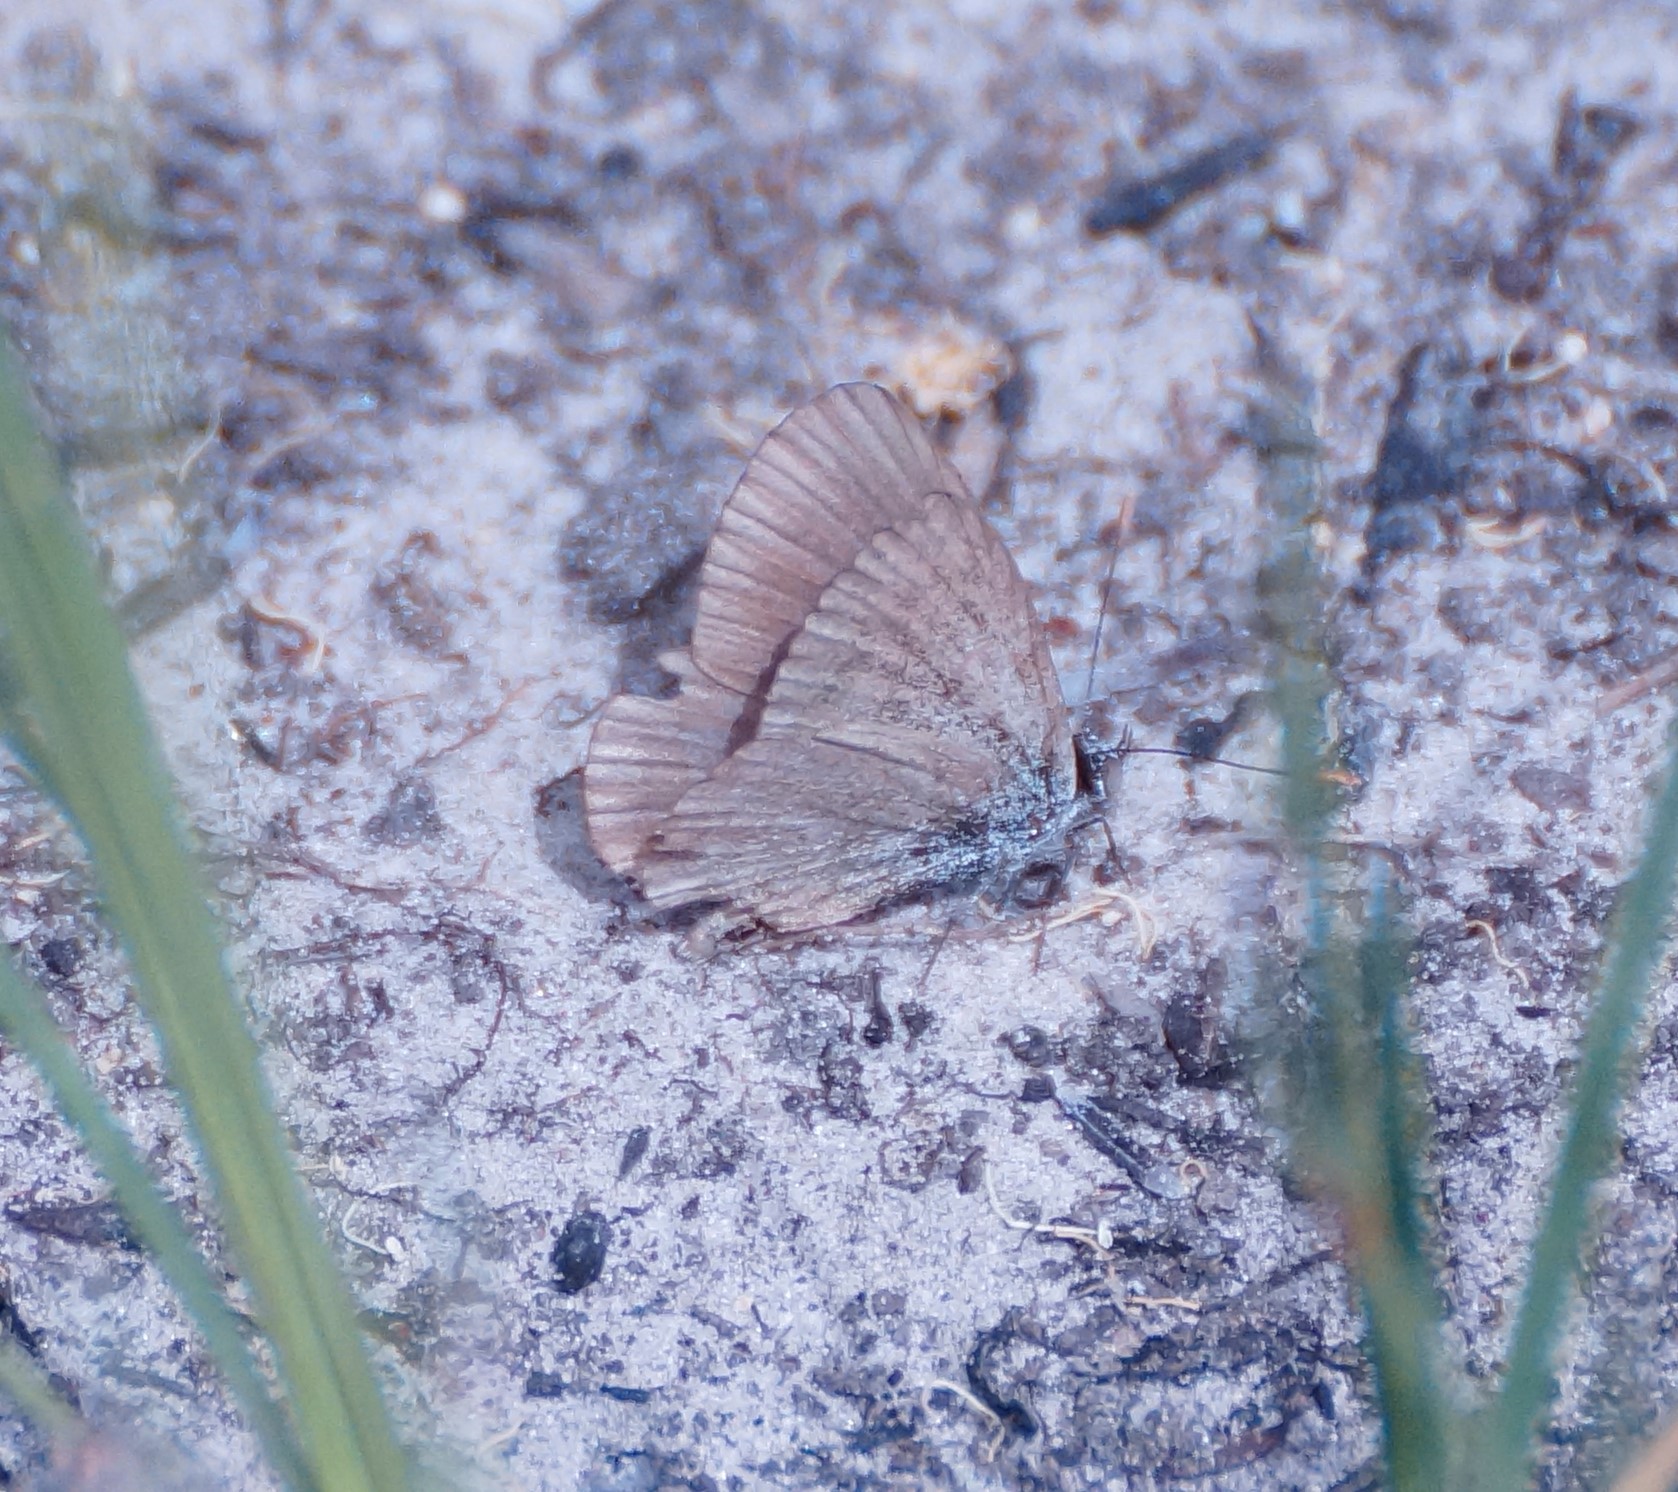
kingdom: Animalia
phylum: Arthropoda
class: Insecta
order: Lepidoptera
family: Lycaenidae
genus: Zizina
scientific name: Zizina otis
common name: Lesser grass blue
